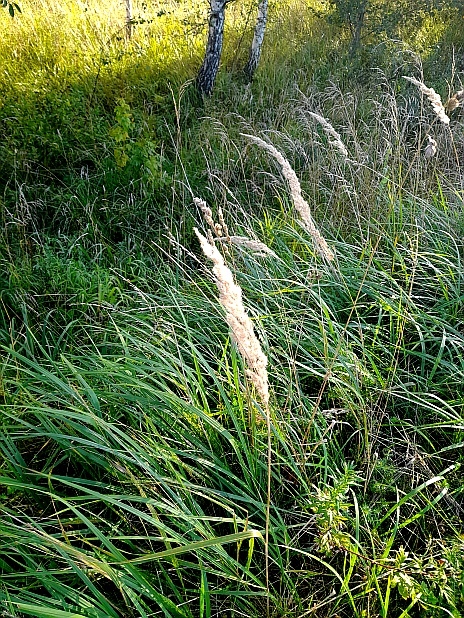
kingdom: Plantae
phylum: Tracheophyta
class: Liliopsida
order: Poales
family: Poaceae
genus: Calamagrostis
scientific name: Calamagrostis epigejos
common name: Wood small-reed
